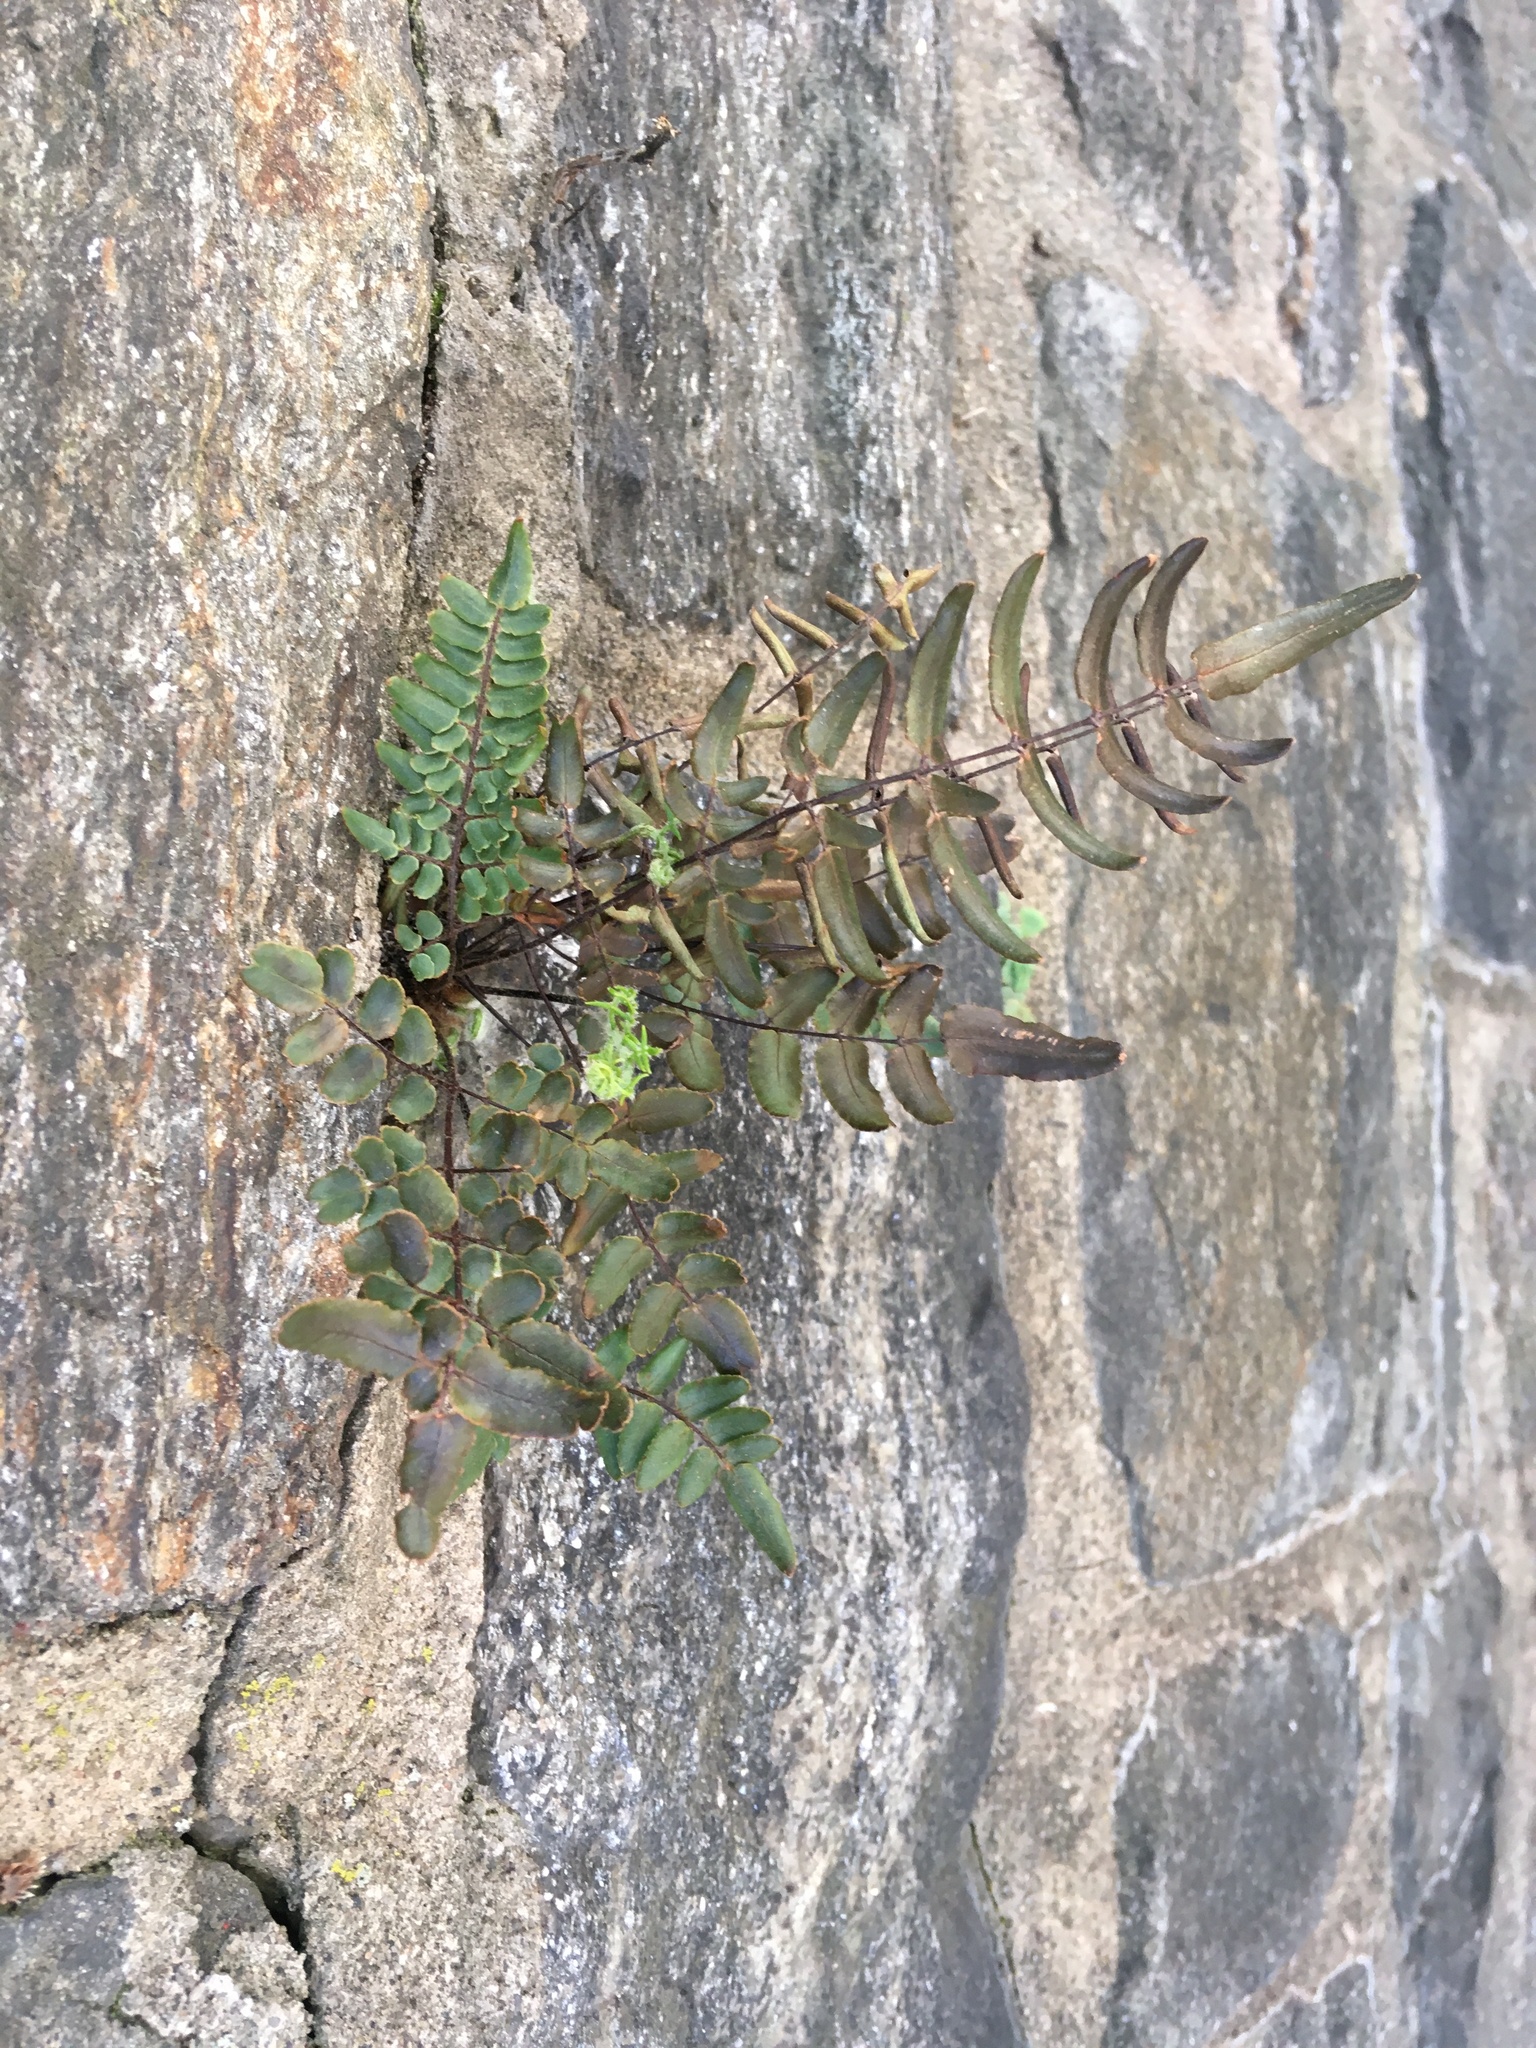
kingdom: Plantae
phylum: Tracheophyta
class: Polypodiopsida
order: Polypodiales
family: Pteridaceae
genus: Pellaea
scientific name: Pellaea atropurpurea
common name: Hairy cliffbrake
